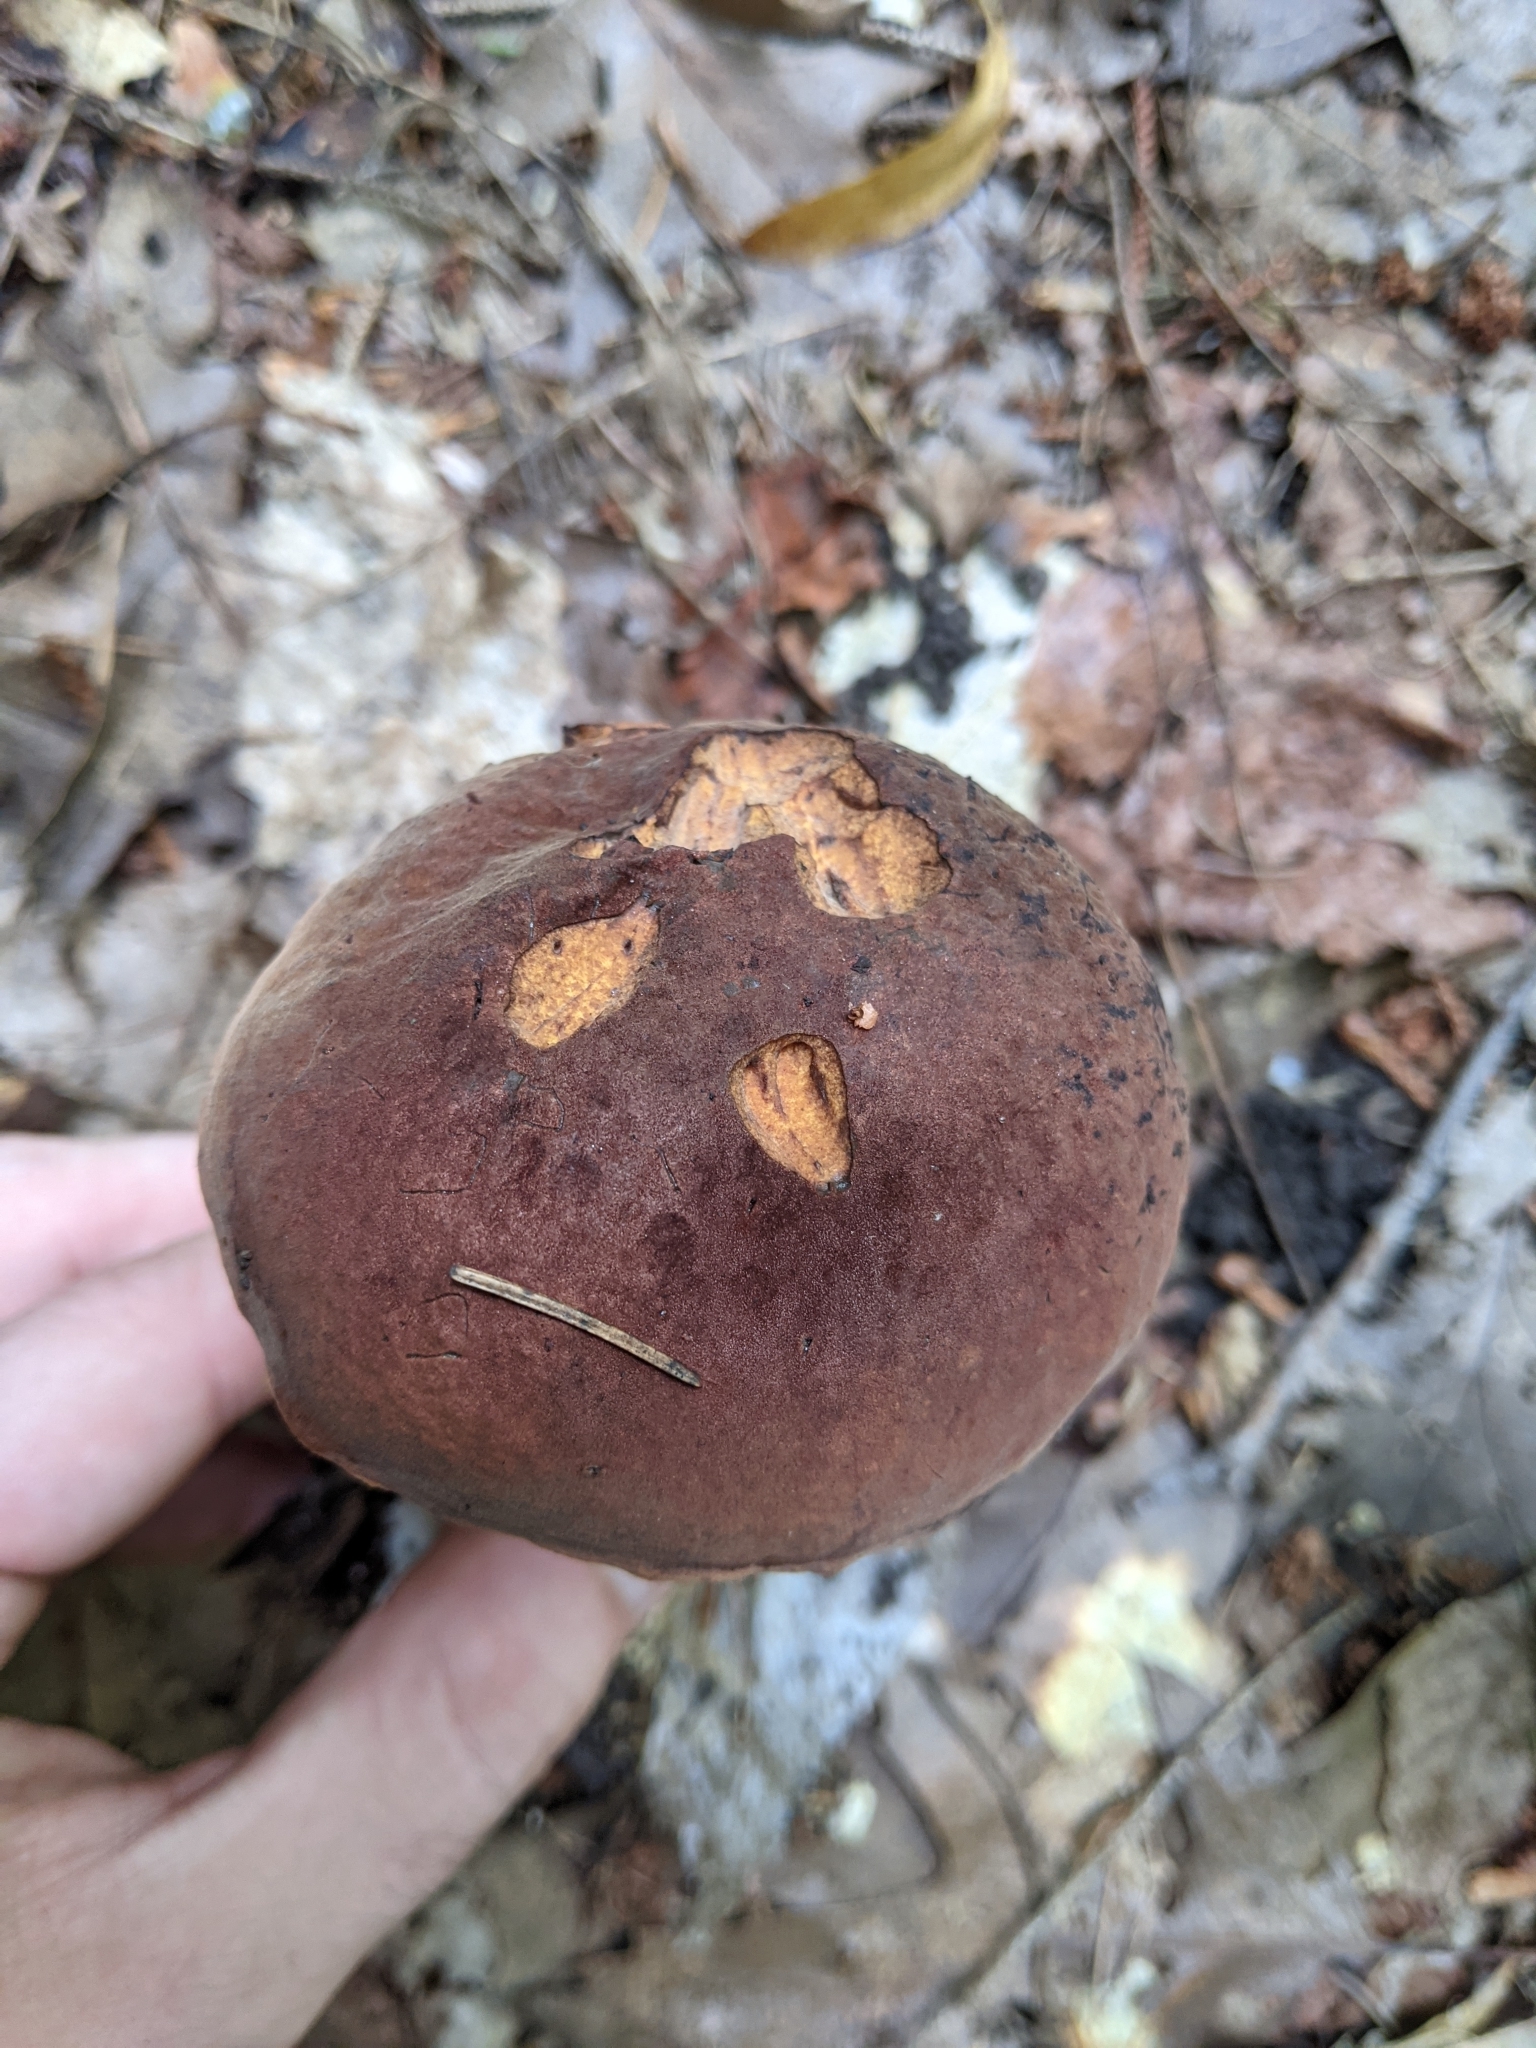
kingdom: Fungi
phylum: Basidiomycota
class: Agaricomycetes
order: Boletales
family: Boletaceae
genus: Boletus
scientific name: Boletus subvelutipes
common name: Red-mouth bolete
